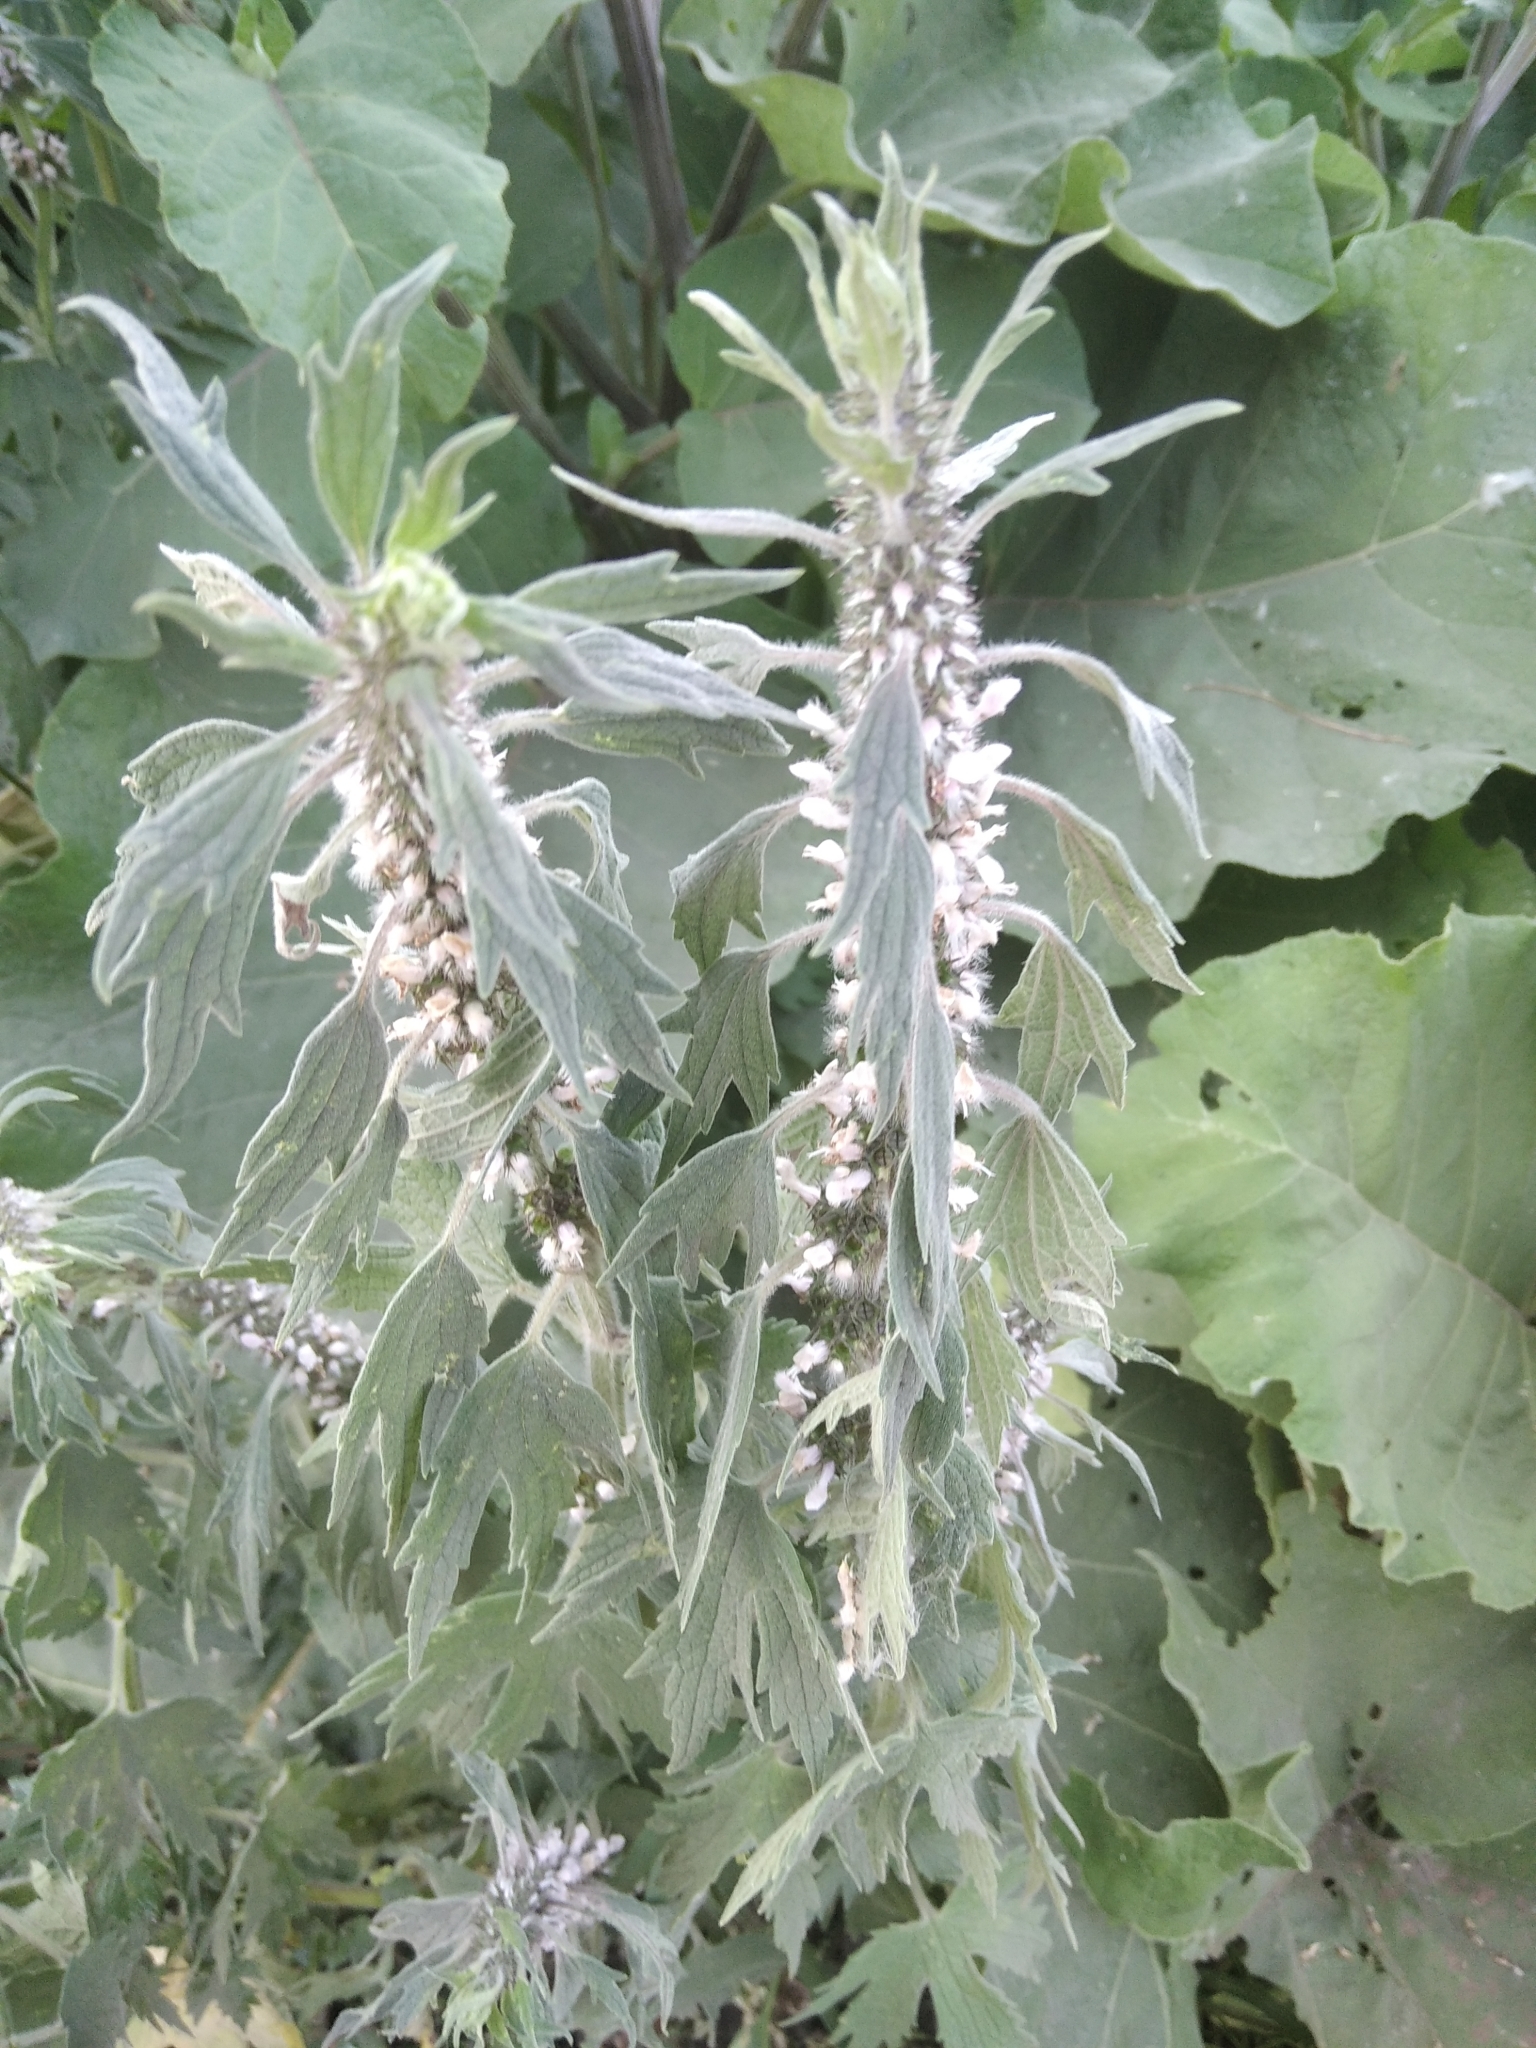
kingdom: Plantae
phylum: Tracheophyta
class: Magnoliopsida
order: Lamiales
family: Lamiaceae
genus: Leonurus
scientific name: Leonurus quinquelobatus
